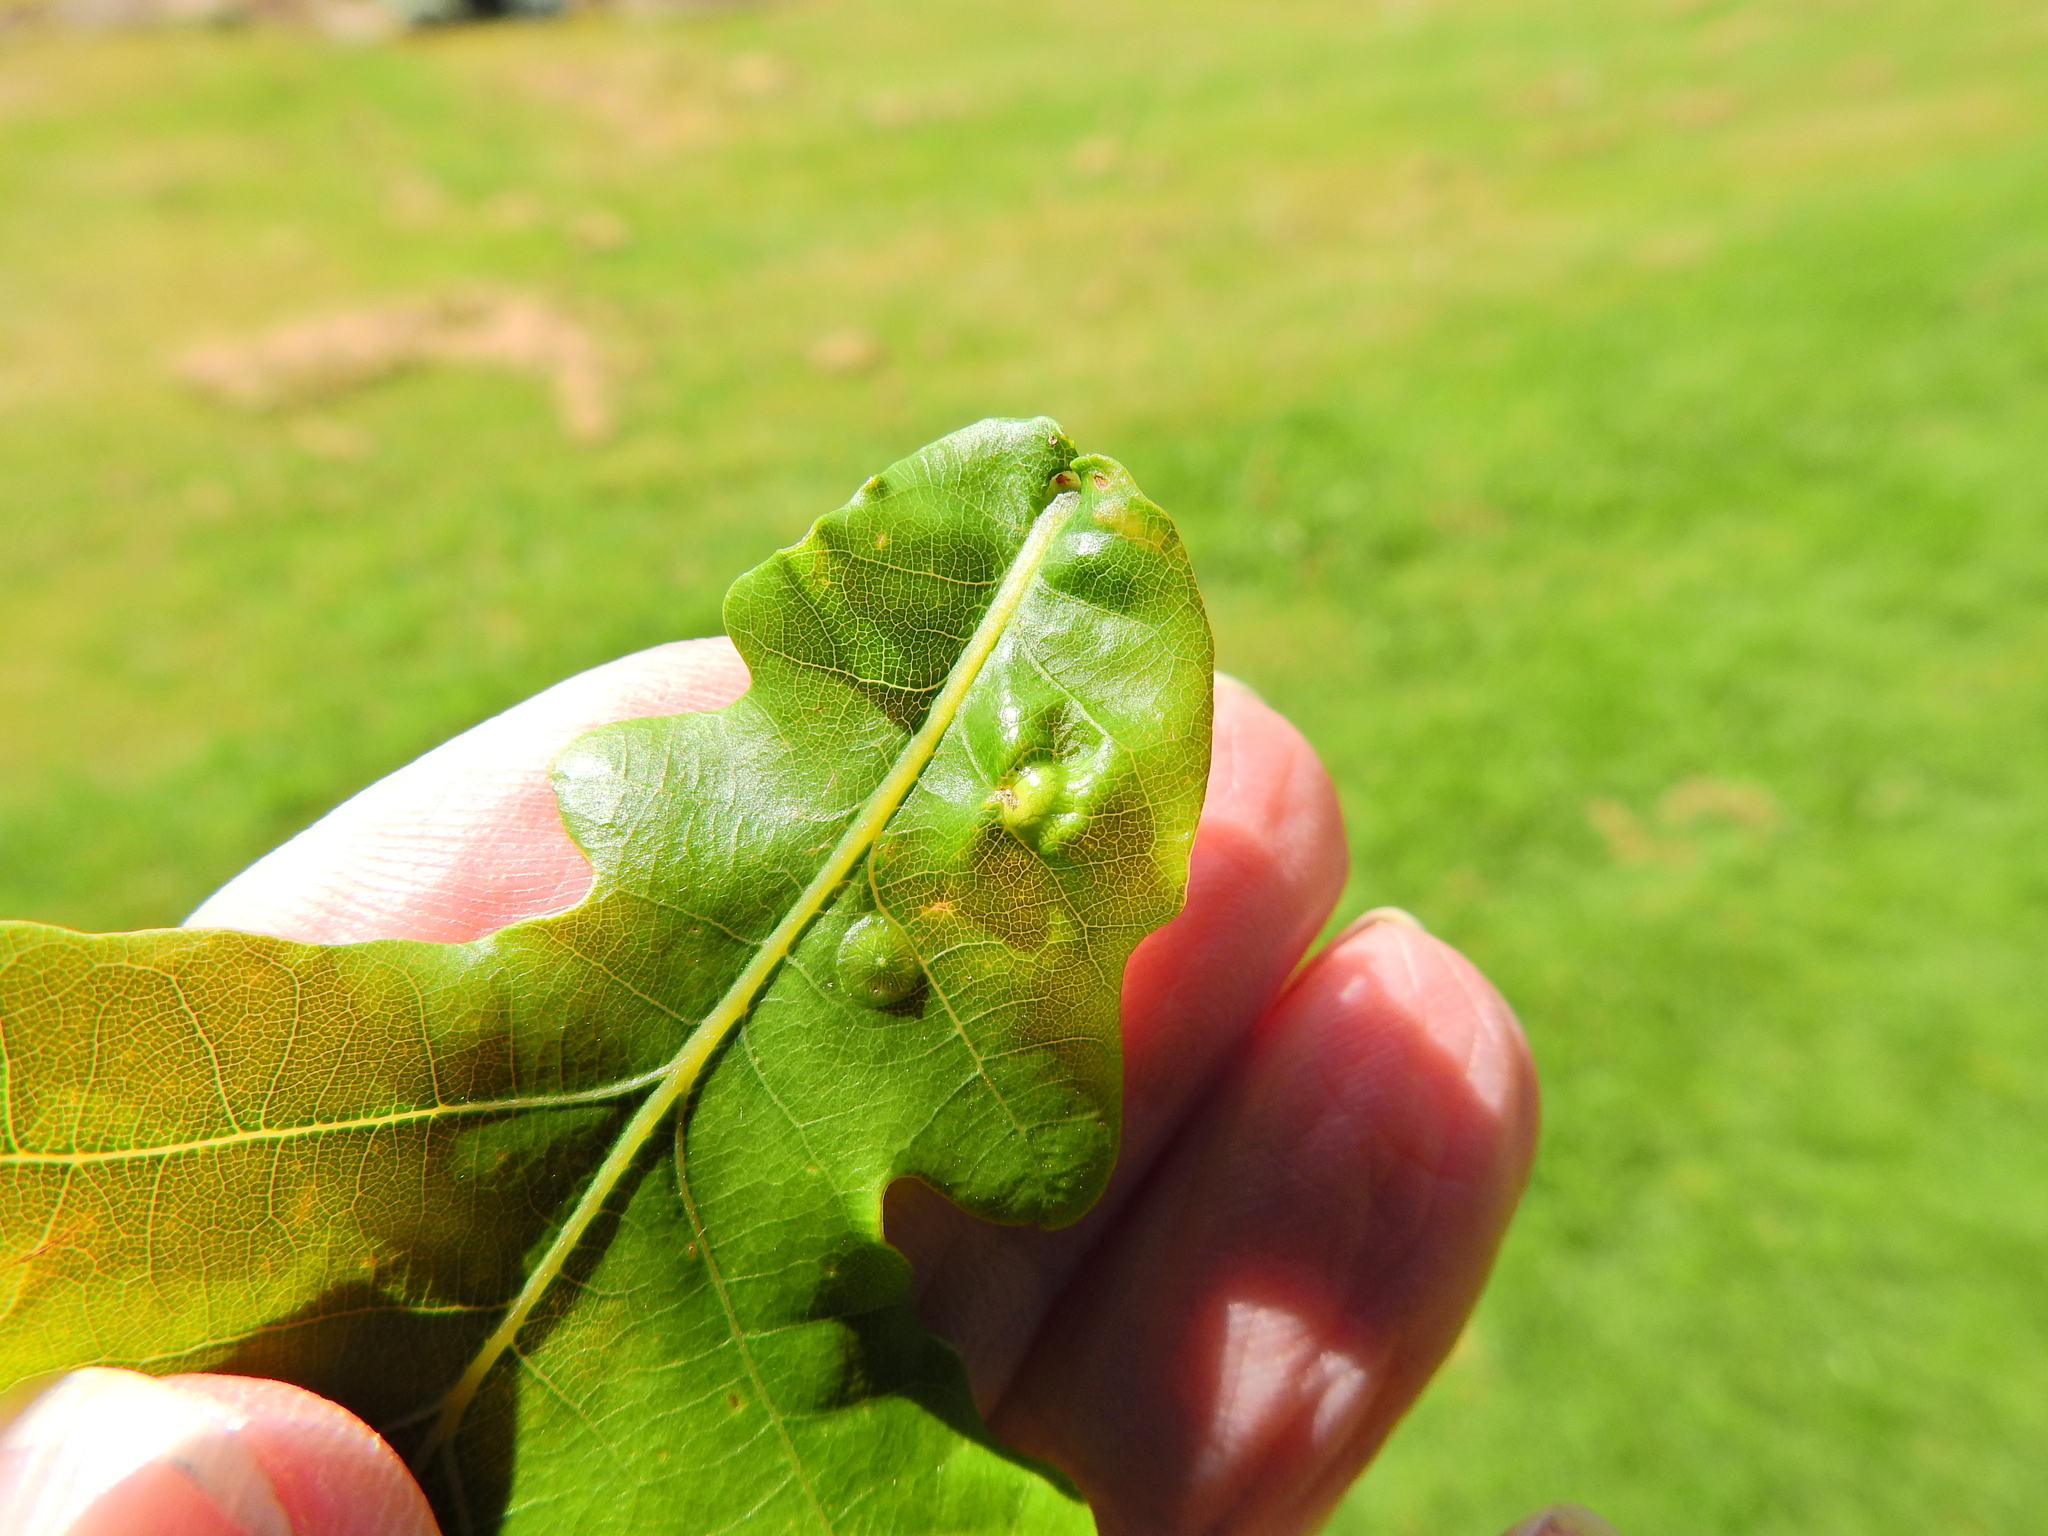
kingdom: Animalia
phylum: Arthropoda
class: Insecta
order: Hymenoptera
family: Cynipidae
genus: Andricus
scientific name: Andricus curvator
